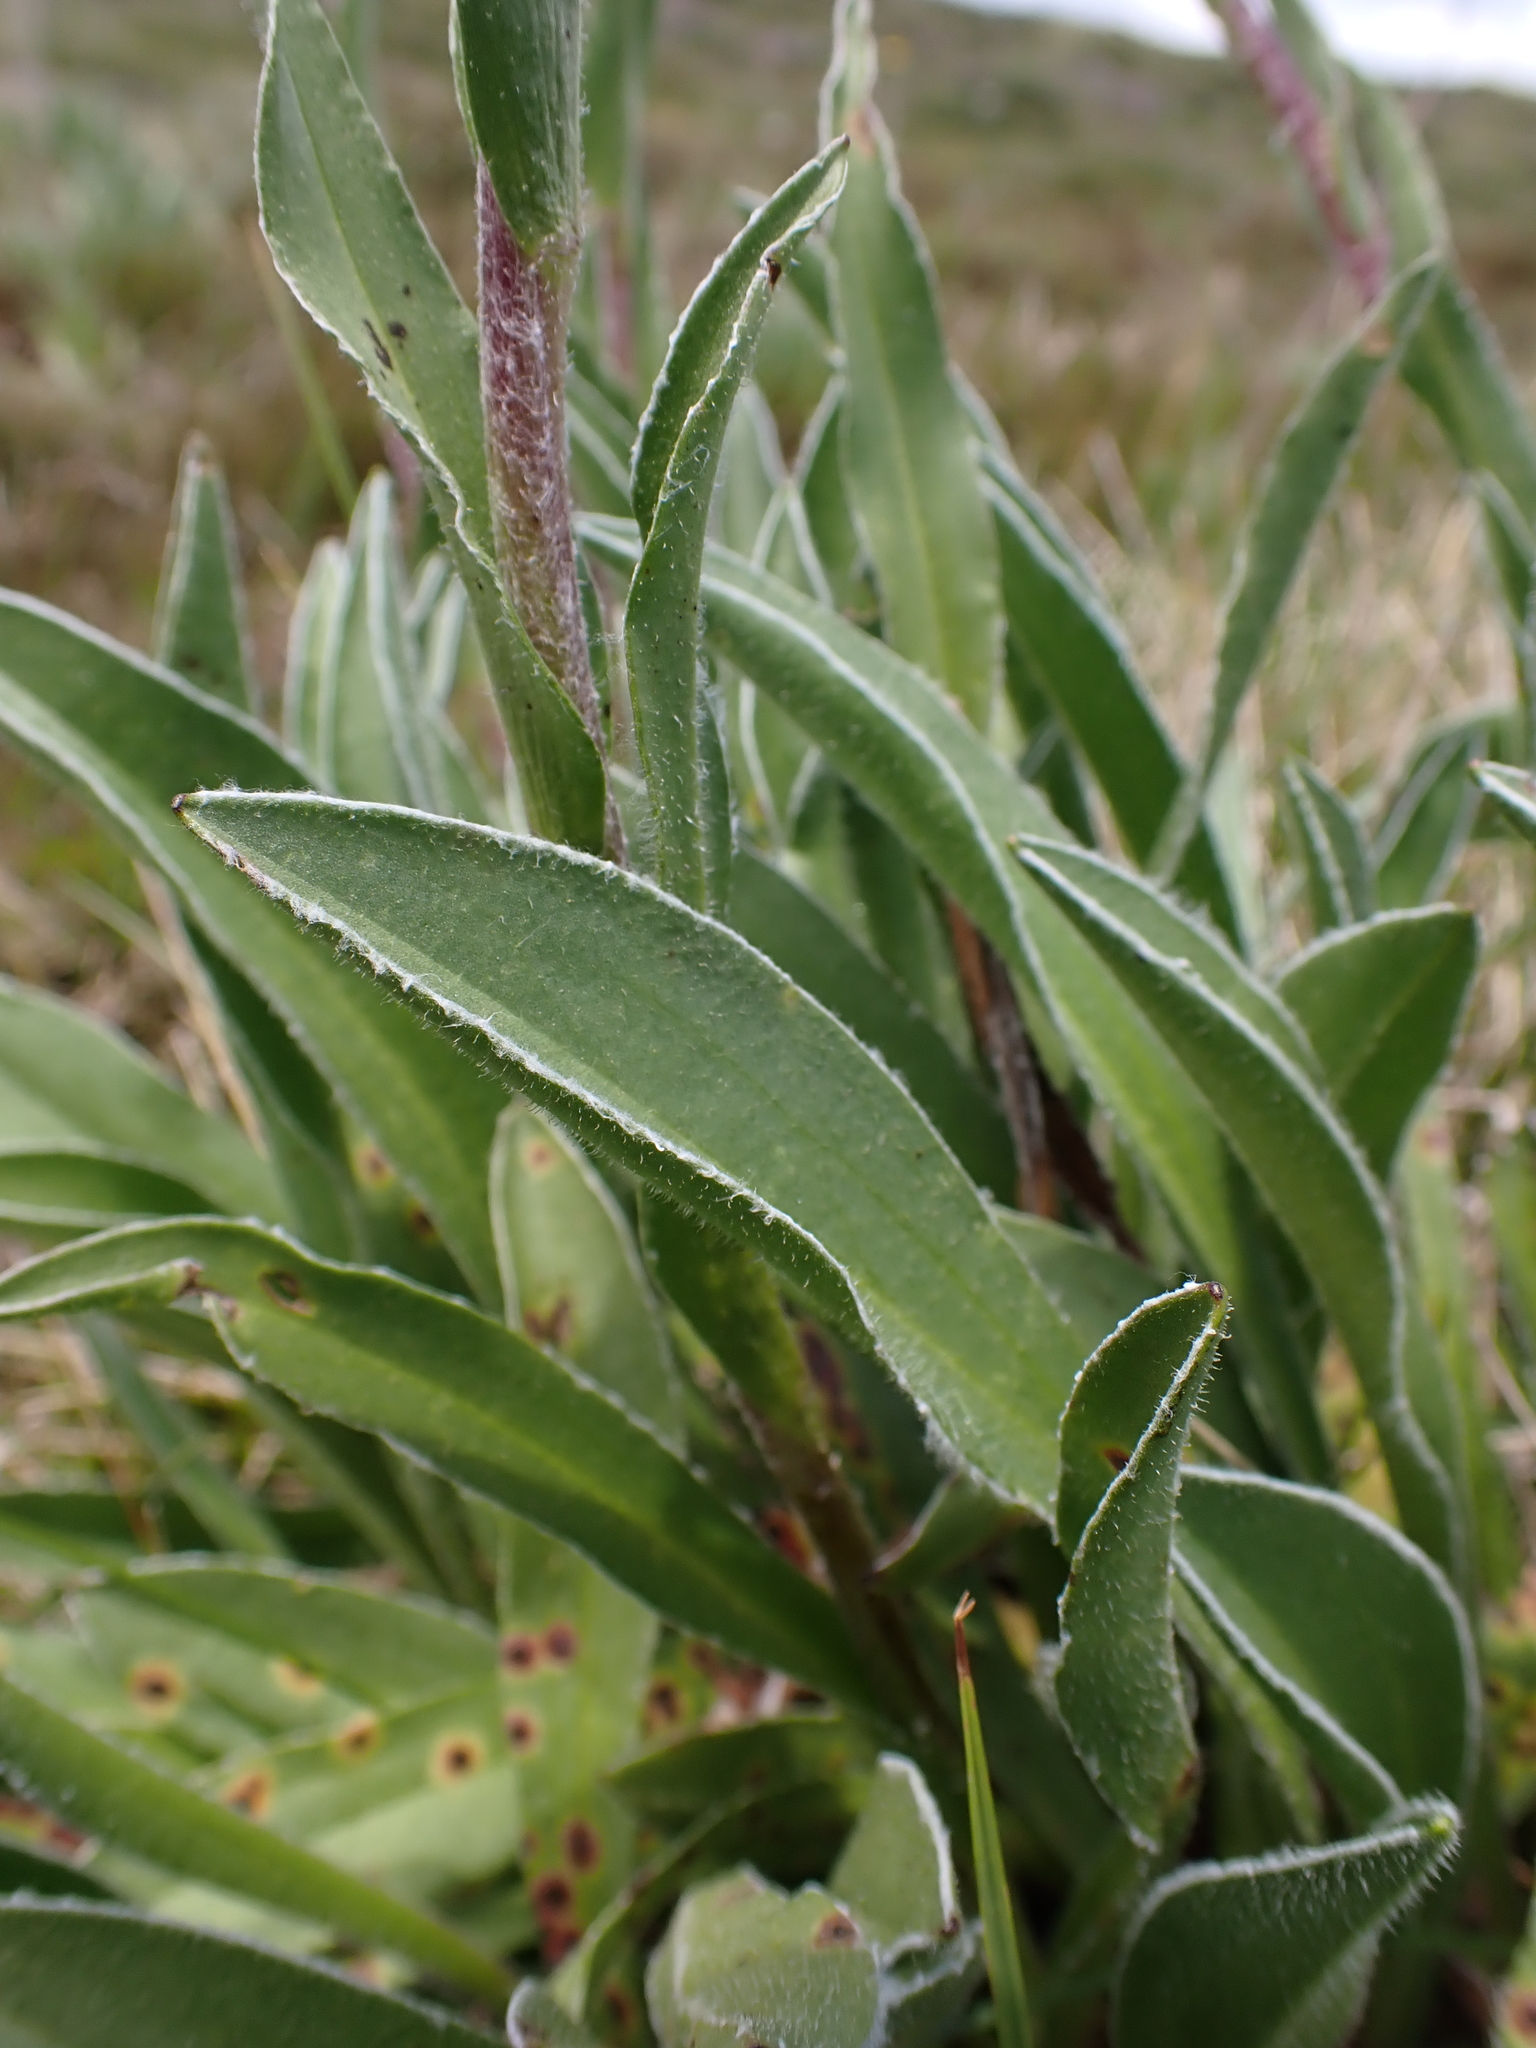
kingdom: Plantae
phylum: Tracheophyta
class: Magnoliopsida
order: Asterales
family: Asteraceae
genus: Craspedia
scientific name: Craspedia lamicola
